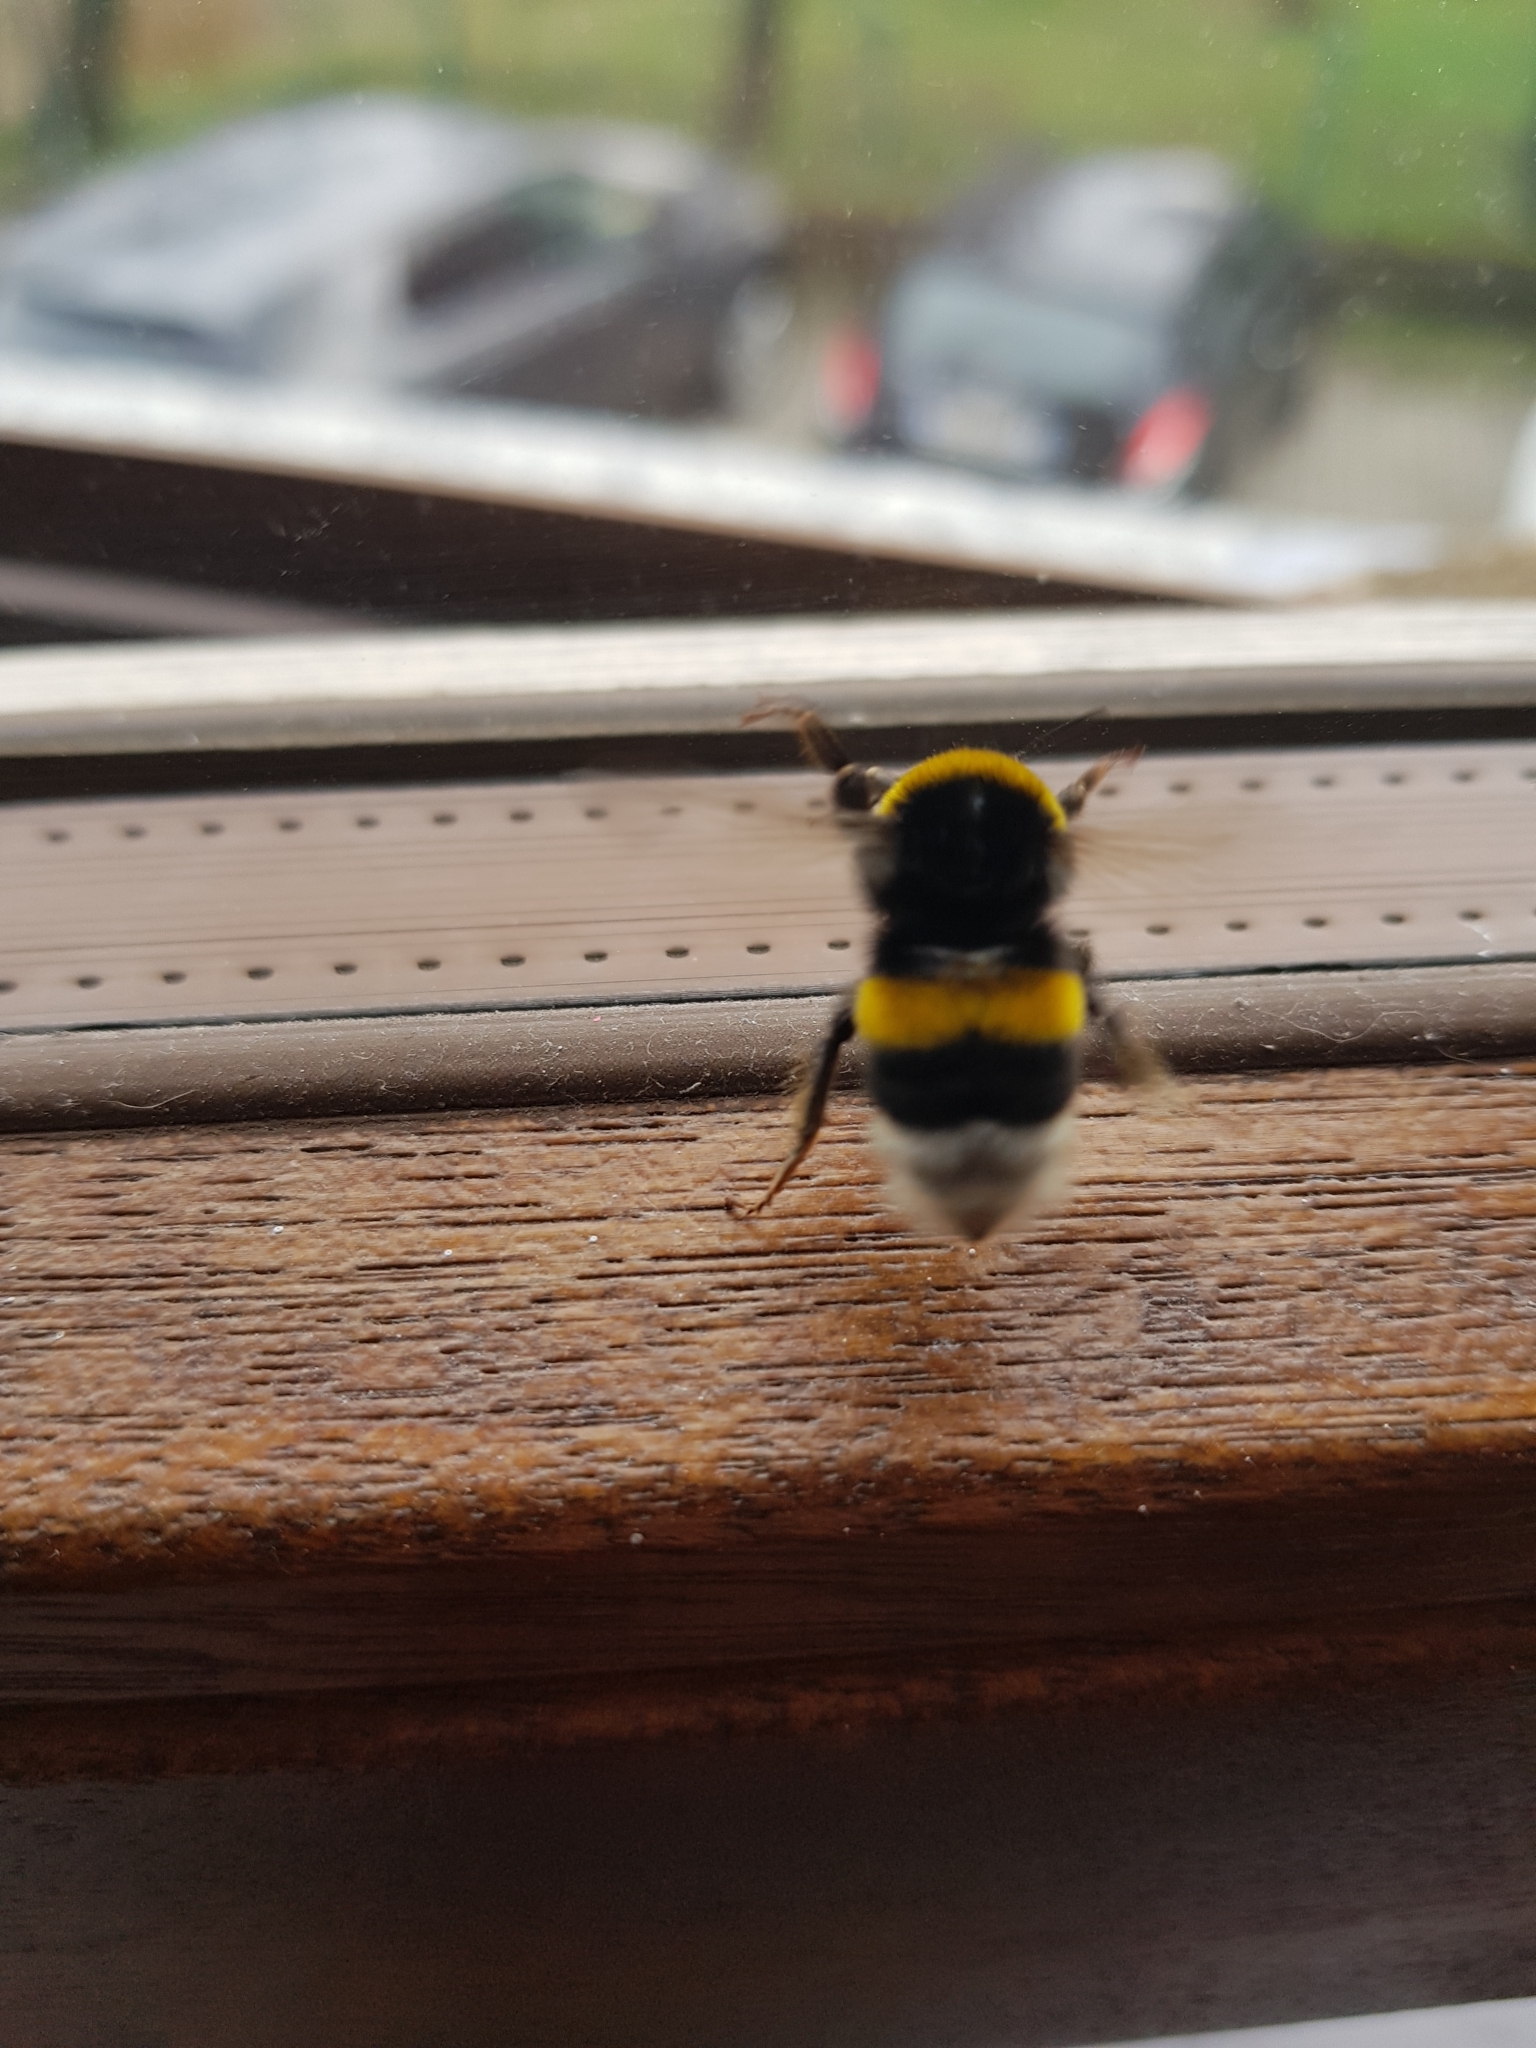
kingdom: Animalia
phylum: Arthropoda
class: Insecta
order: Hymenoptera
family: Apidae
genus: Bombus
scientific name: Bombus terrestris
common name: Buff-tailed bumblebee
